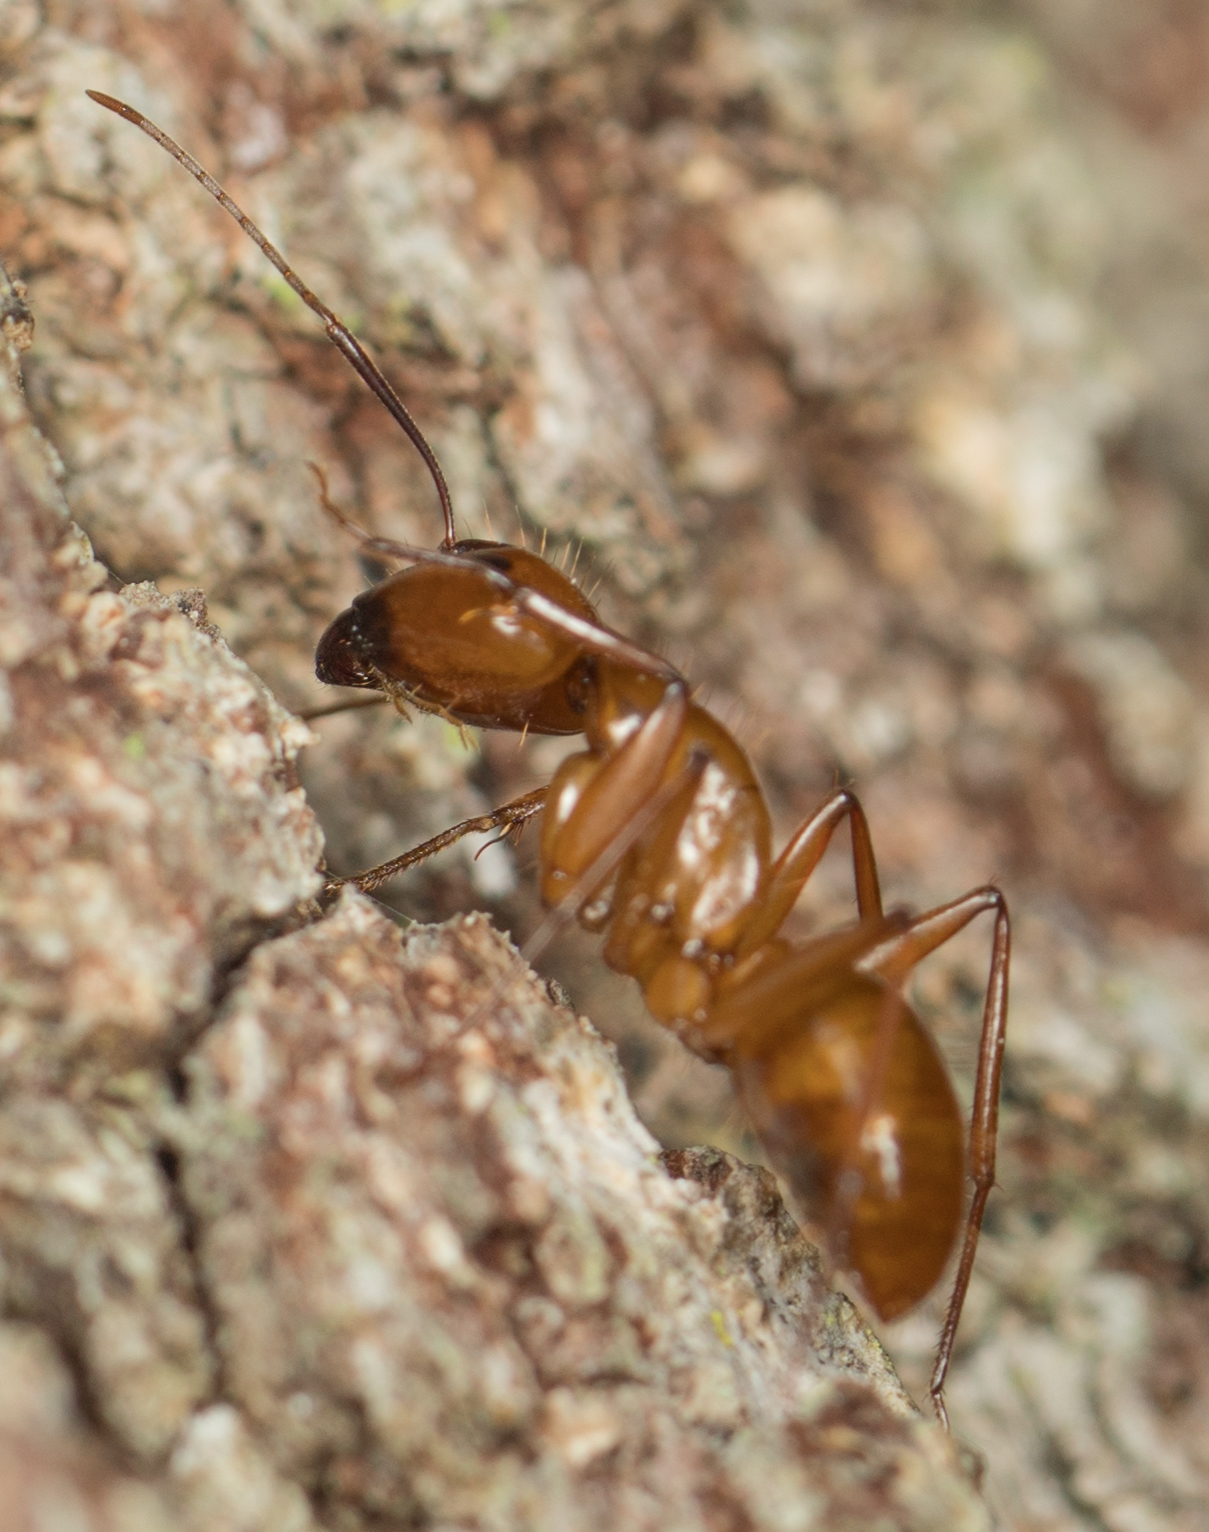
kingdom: Animalia
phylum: Arthropoda
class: Insecta
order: Hymenoptera
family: Formicidae
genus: Camponotus
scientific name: Camponotus castaneus
